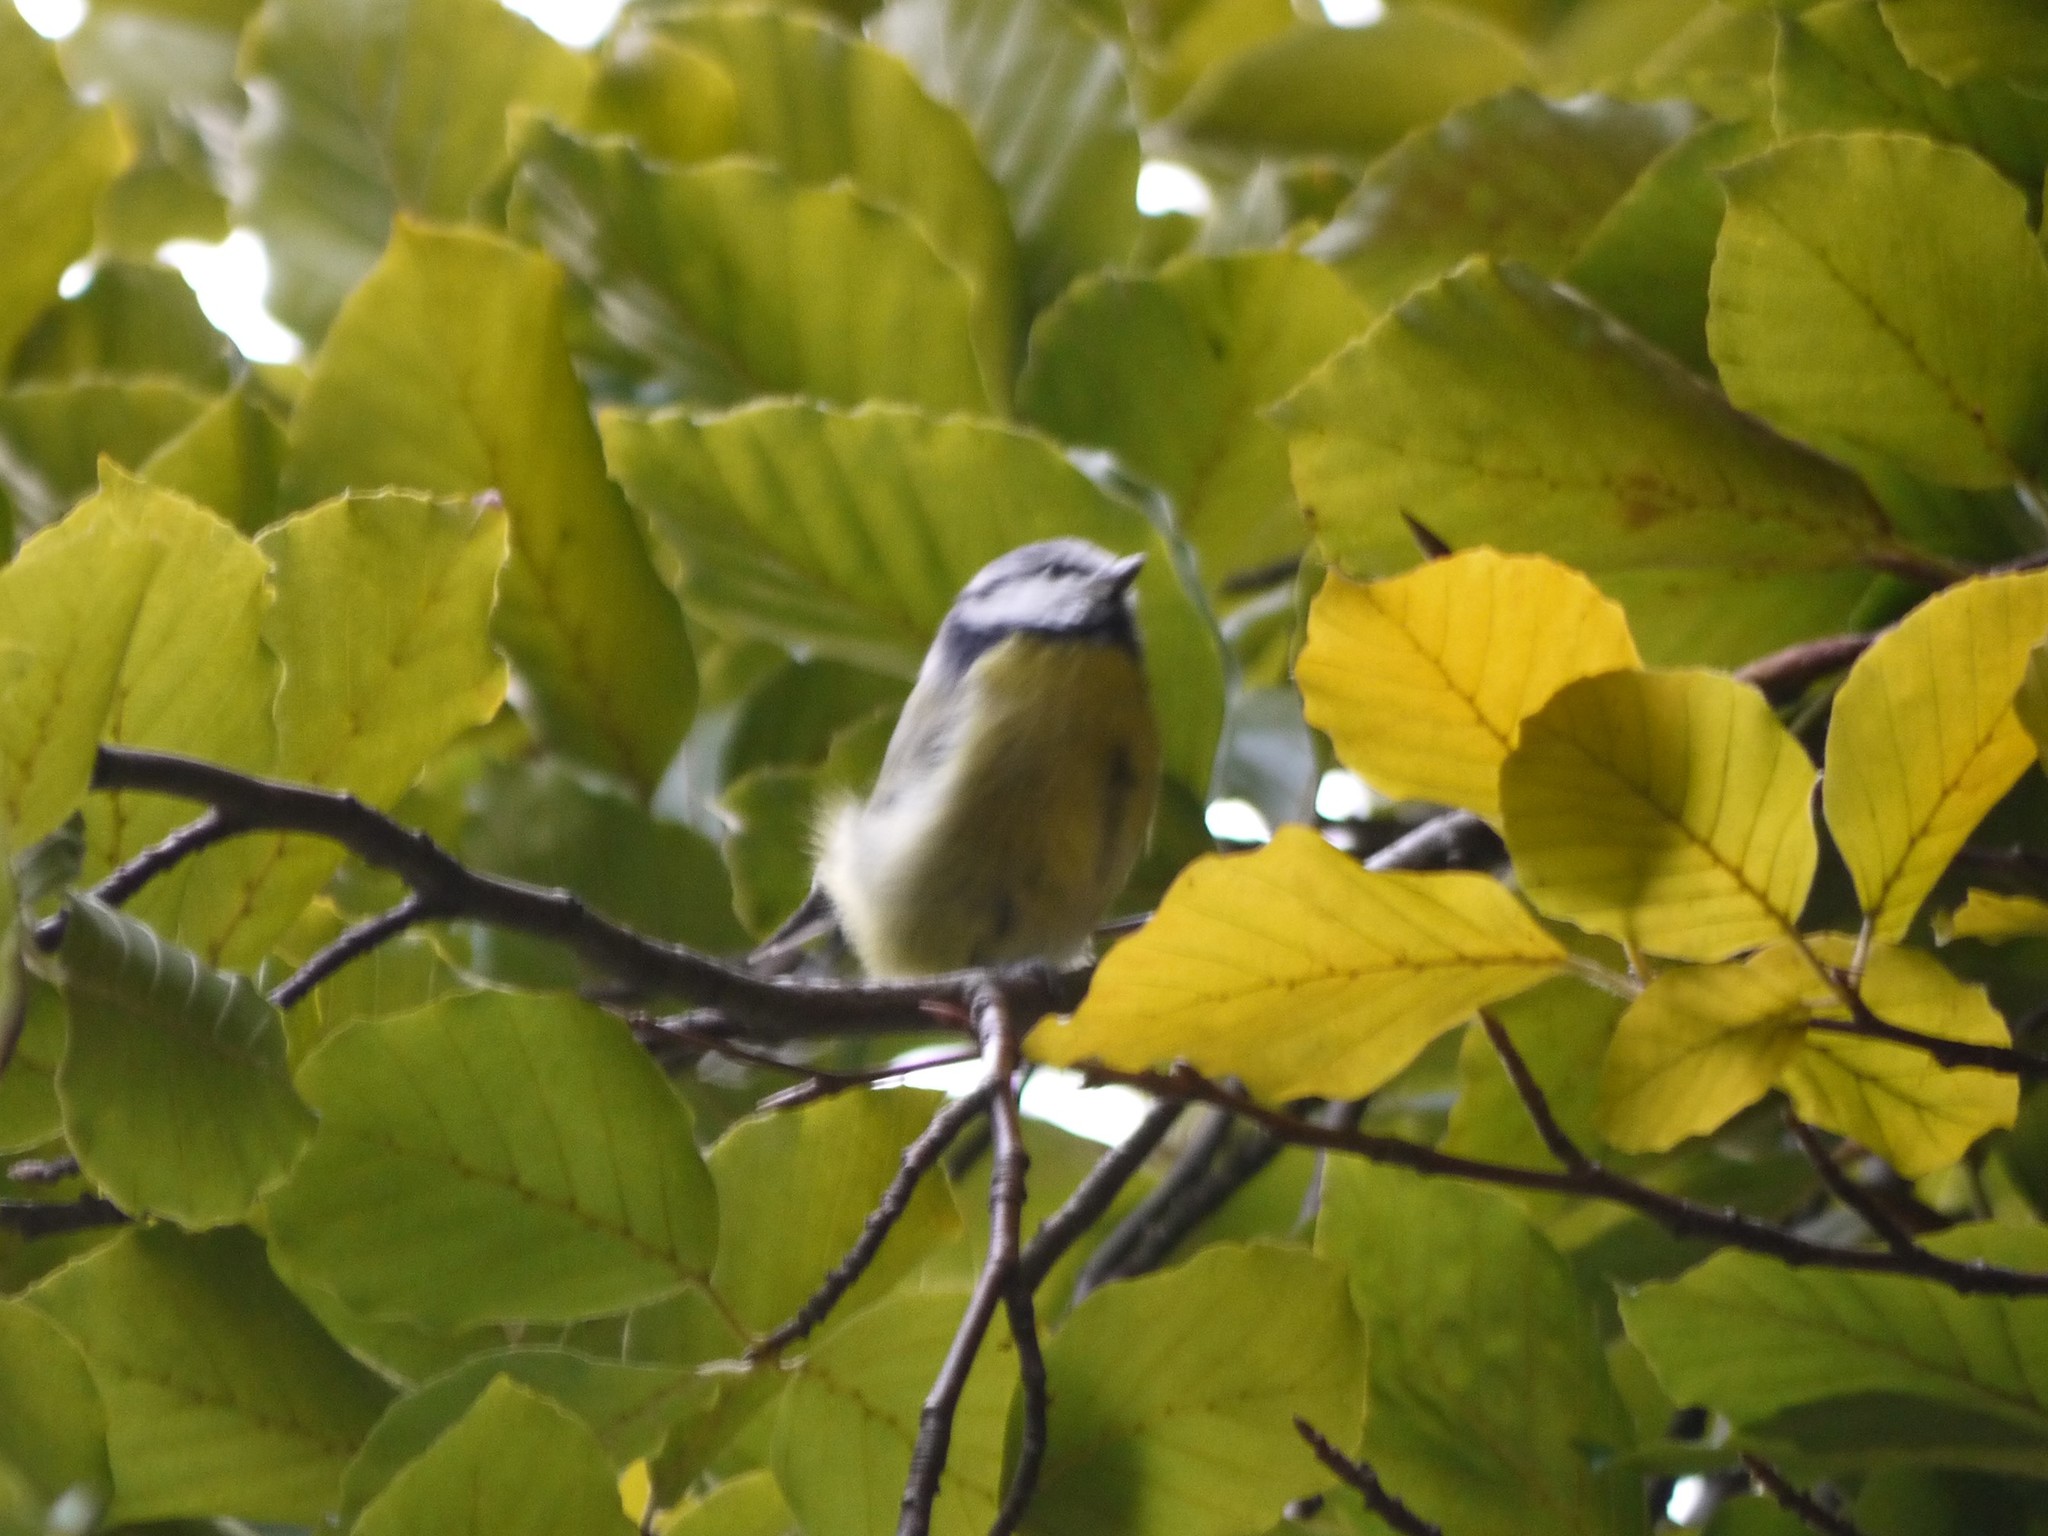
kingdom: Animalia
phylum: Chordata
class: Aves
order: Passeriformes
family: Paridae
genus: Cyanistes
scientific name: Cyanistes caeruleus
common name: Eurasian blue tit
